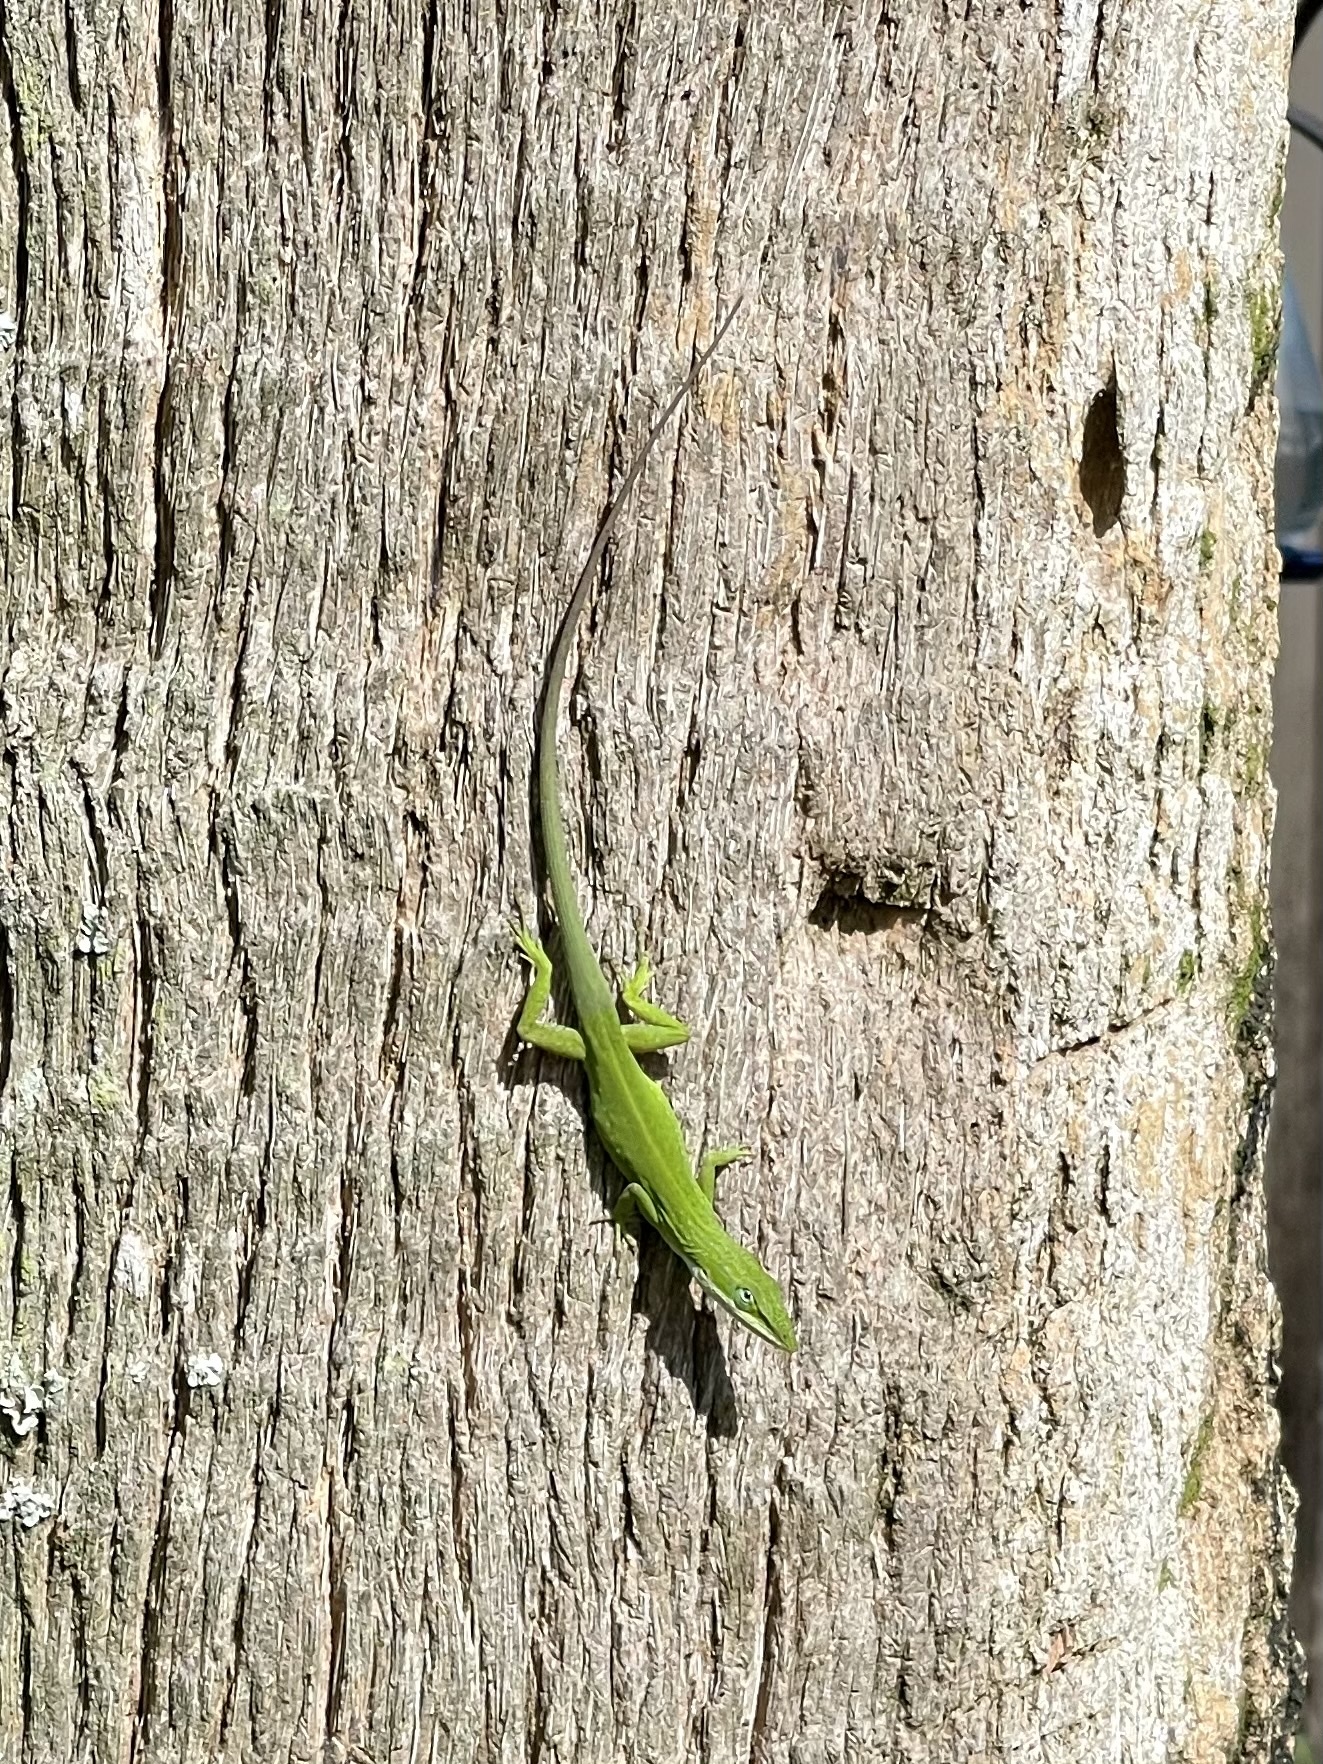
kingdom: Animalia
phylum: Chordata
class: Squamata
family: Dactyloidae
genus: Anolis
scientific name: Anolis carolinensis
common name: Green anole
